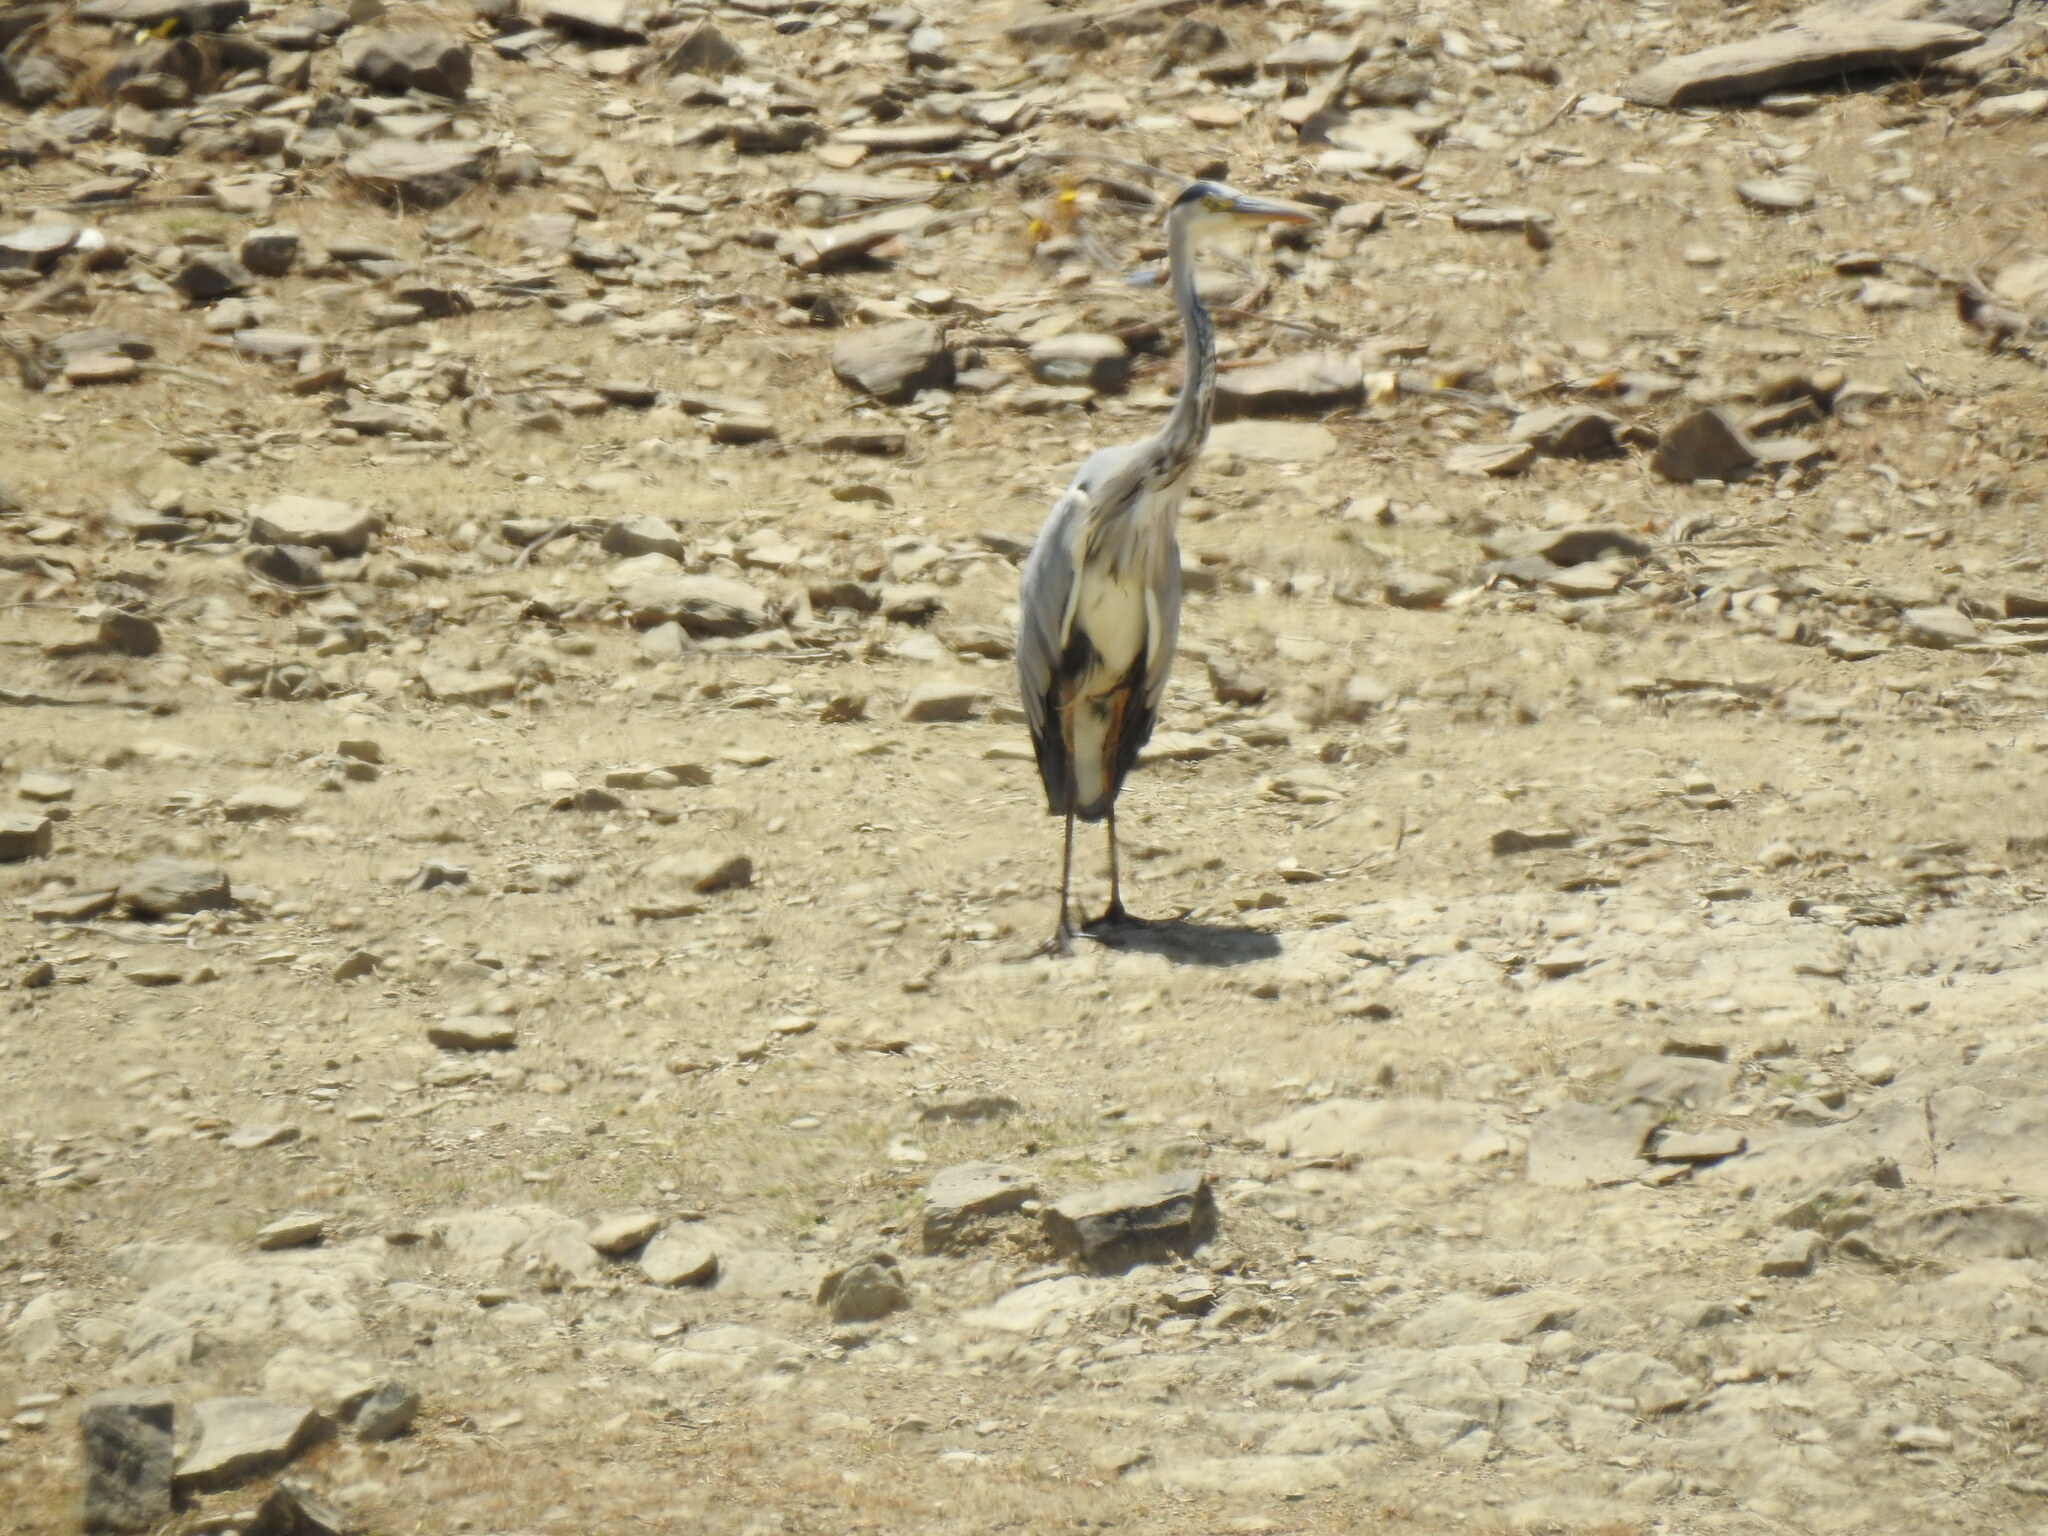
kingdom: Animalia
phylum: Chordata
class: Aves
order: Pelecaniformes
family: Ardeidae
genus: Ardea
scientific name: Ardea cinerea
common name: Grey heron
